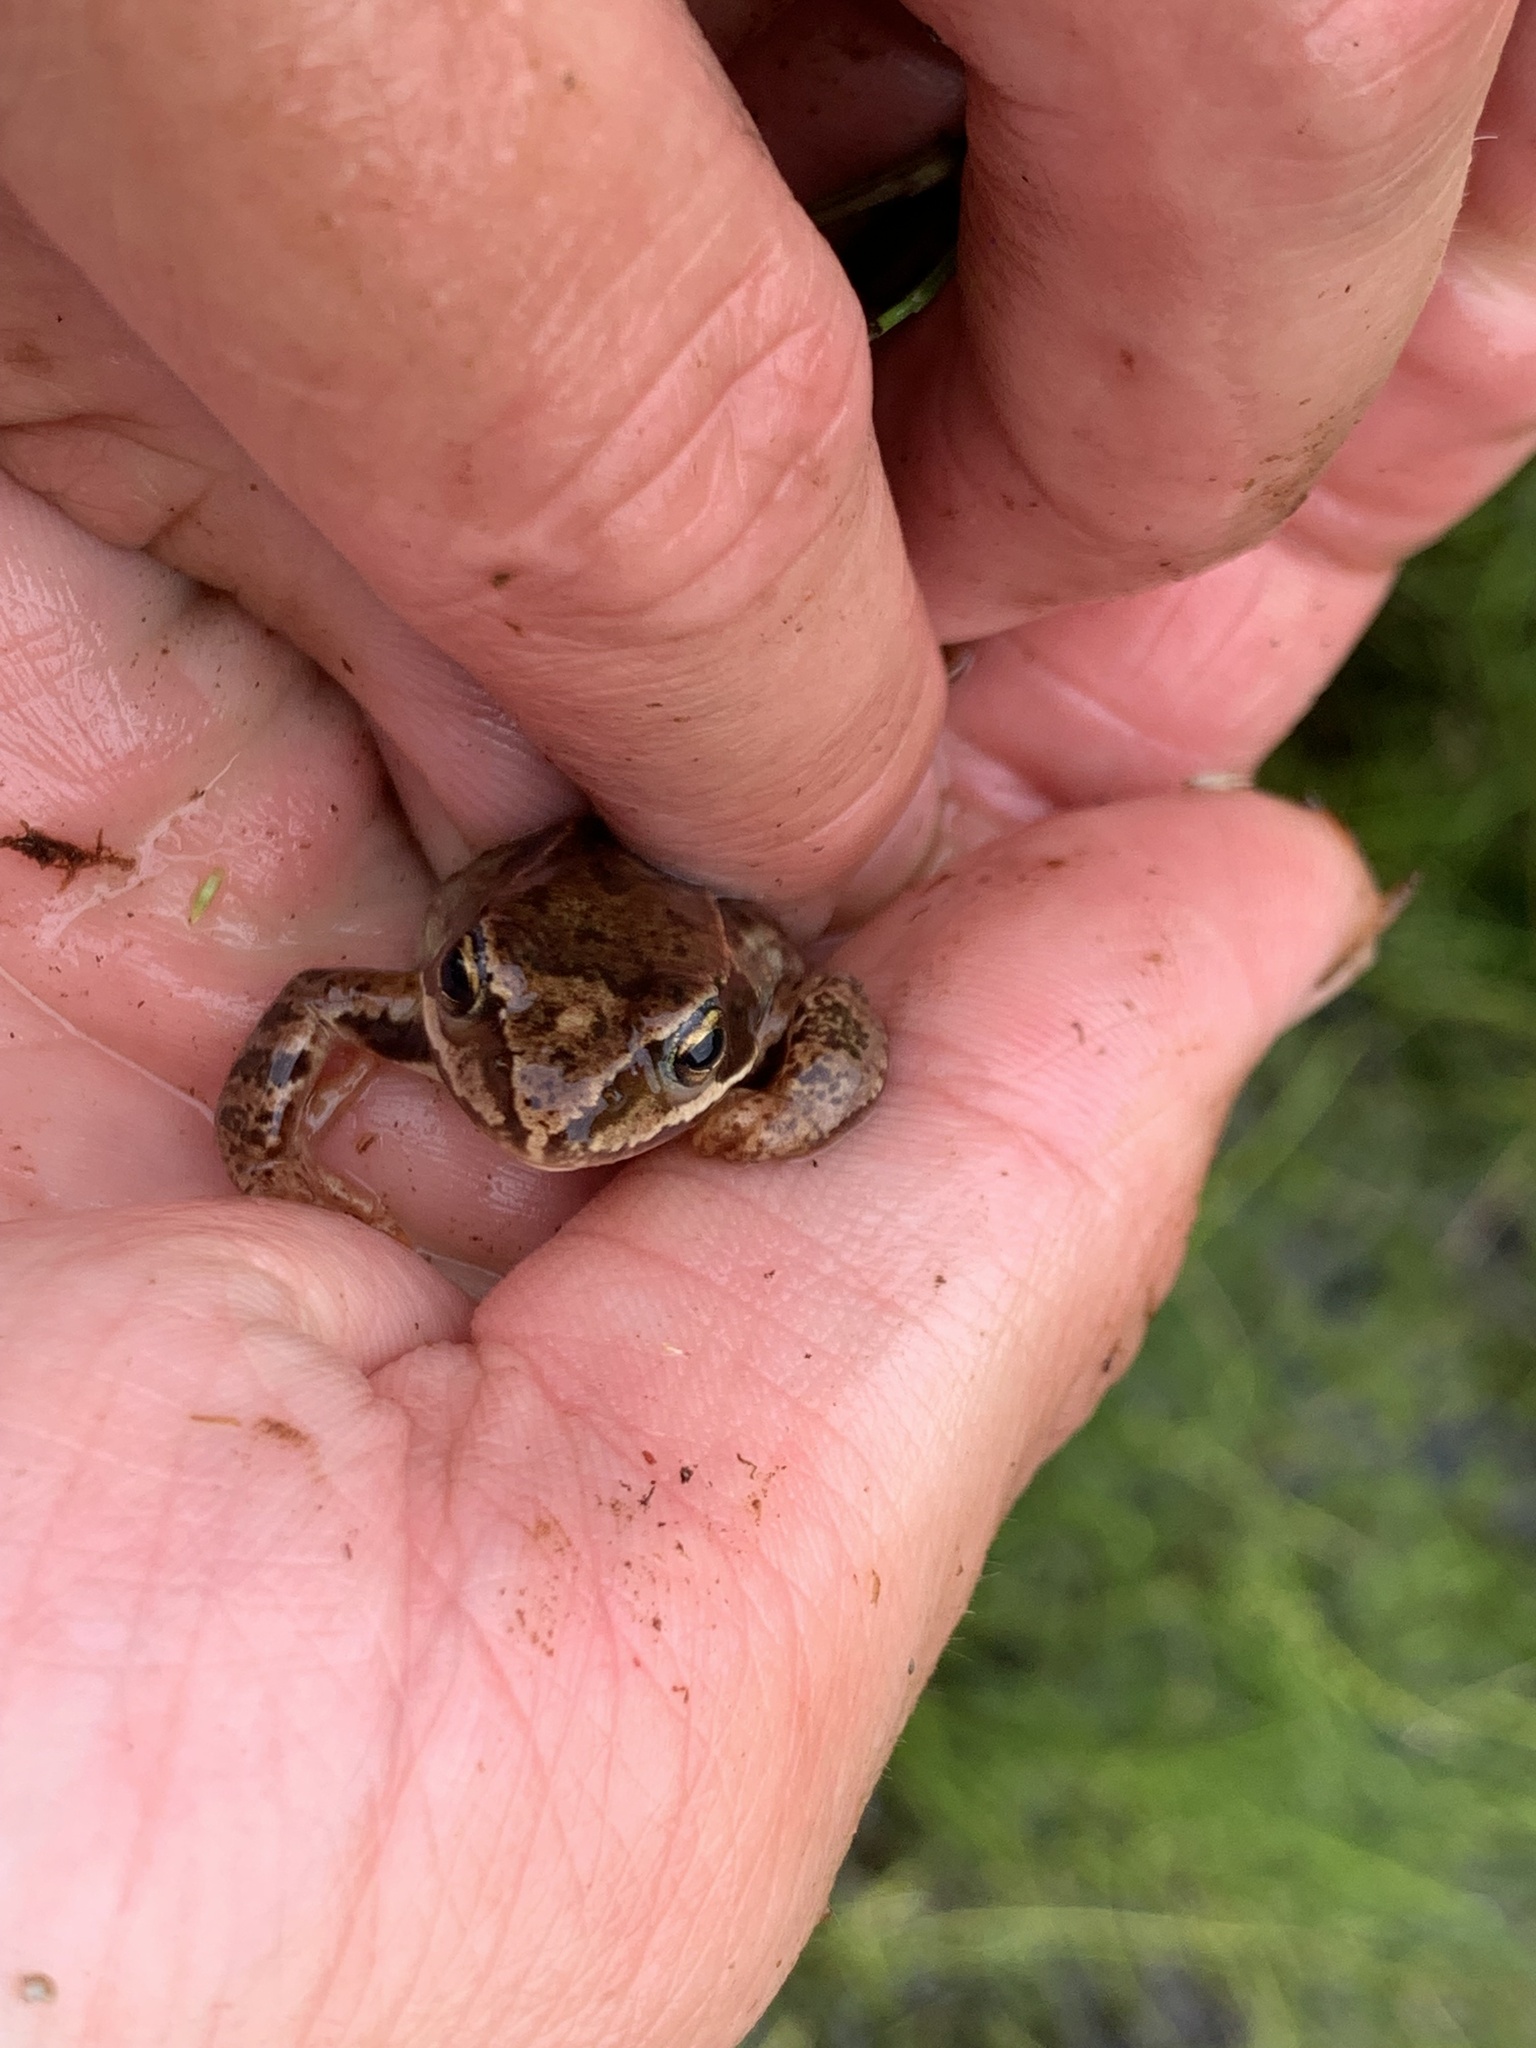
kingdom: Animalia
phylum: Chordata
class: Amphibia
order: Anura
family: Ranidae
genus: Rana
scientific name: Rana temporaria
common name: Common frog
